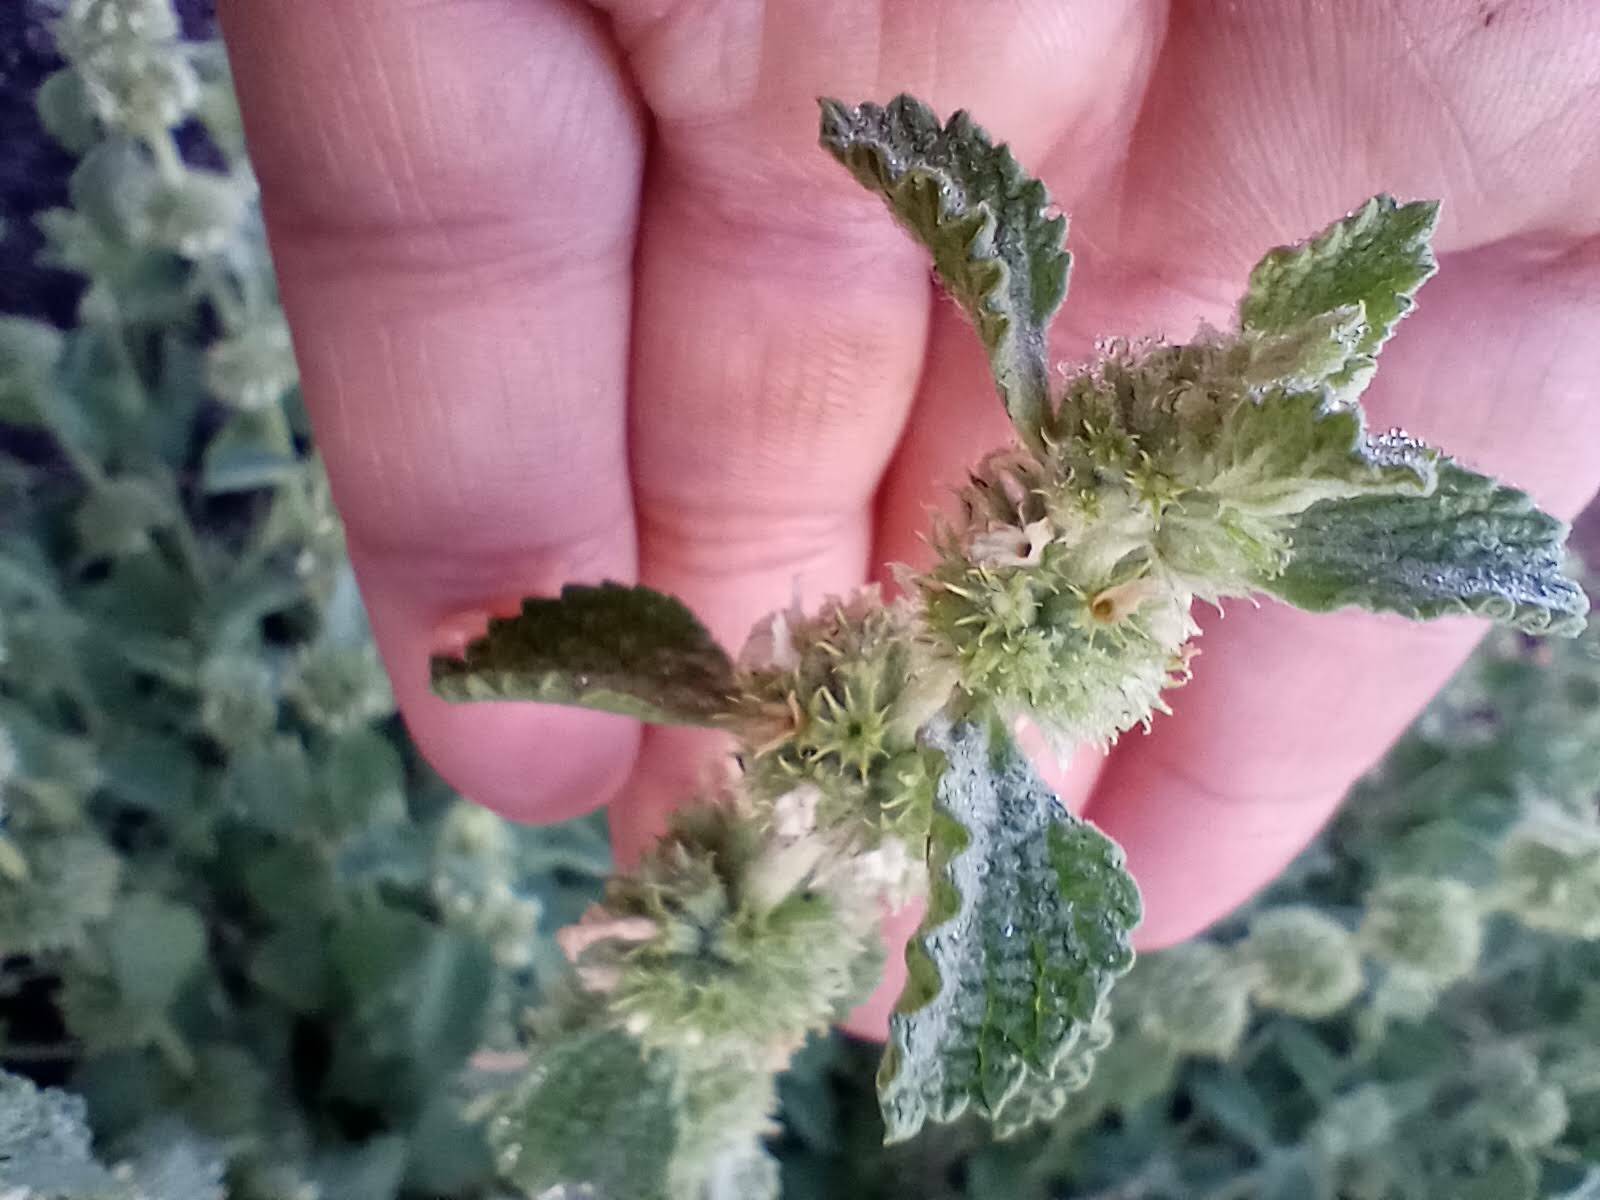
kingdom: Plantae
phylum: Tracheophyta
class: Magnoliopsida
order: Lamiales
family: Lamiaceae
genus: Marrubium
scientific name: Marrubium vulgare
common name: Horehound
